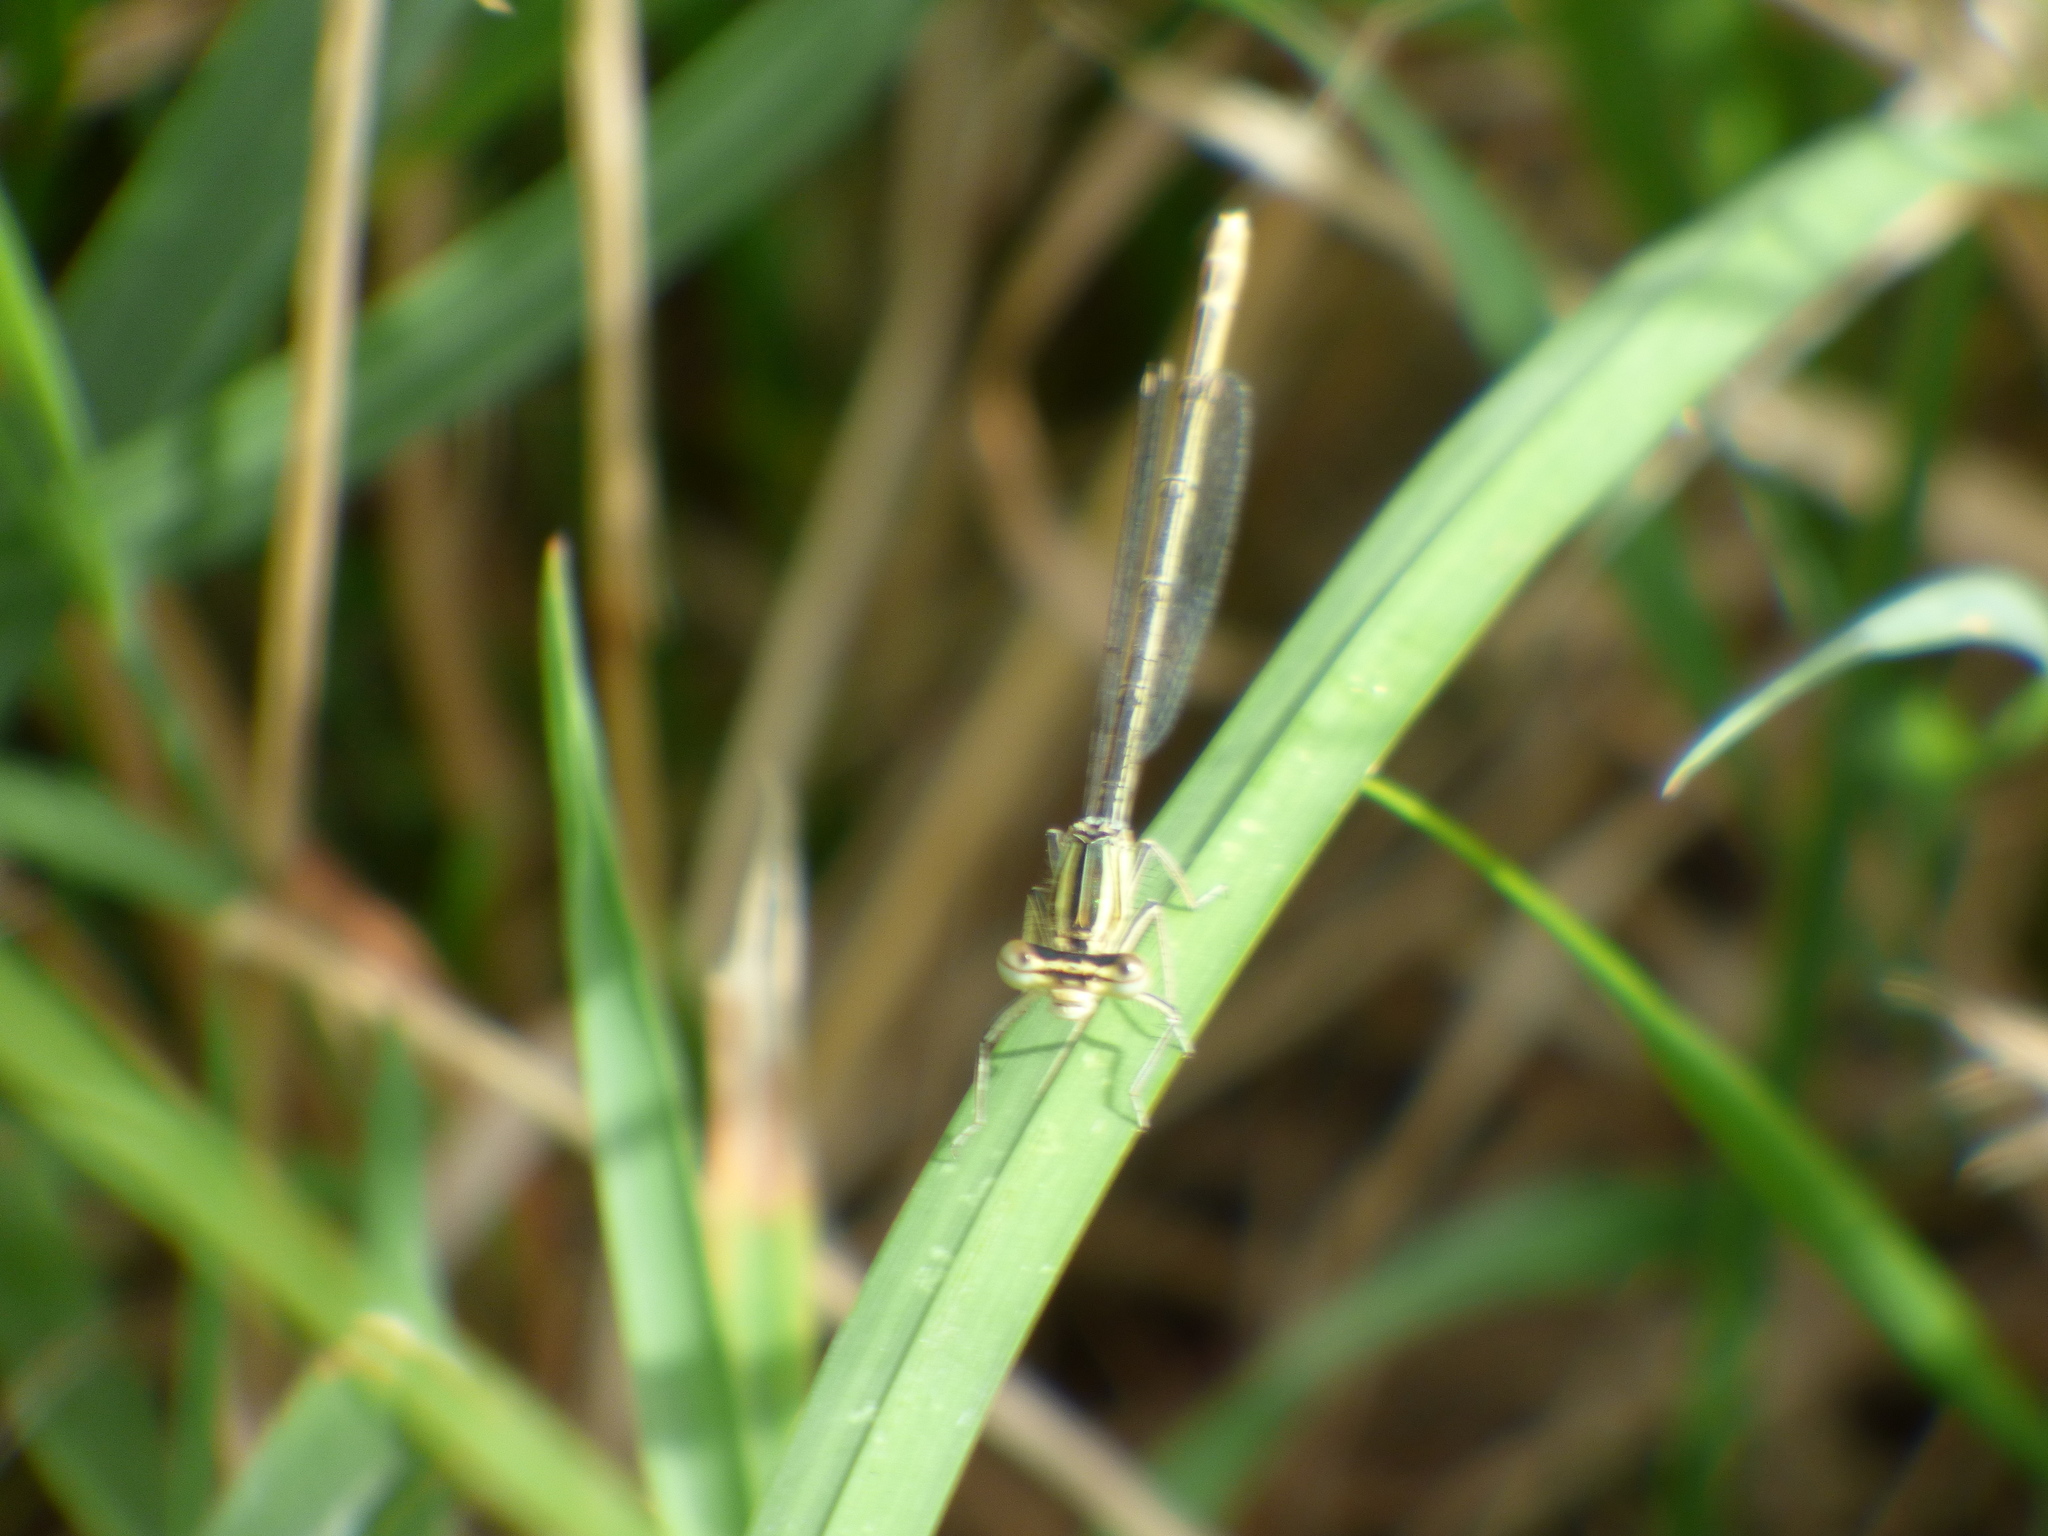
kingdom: Animalia
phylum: Arthropoda
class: Insecta
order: Odonata
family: Platycnemididae
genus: Platycnemis
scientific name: Platycnemis pennipes
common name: White-legged damselfly
